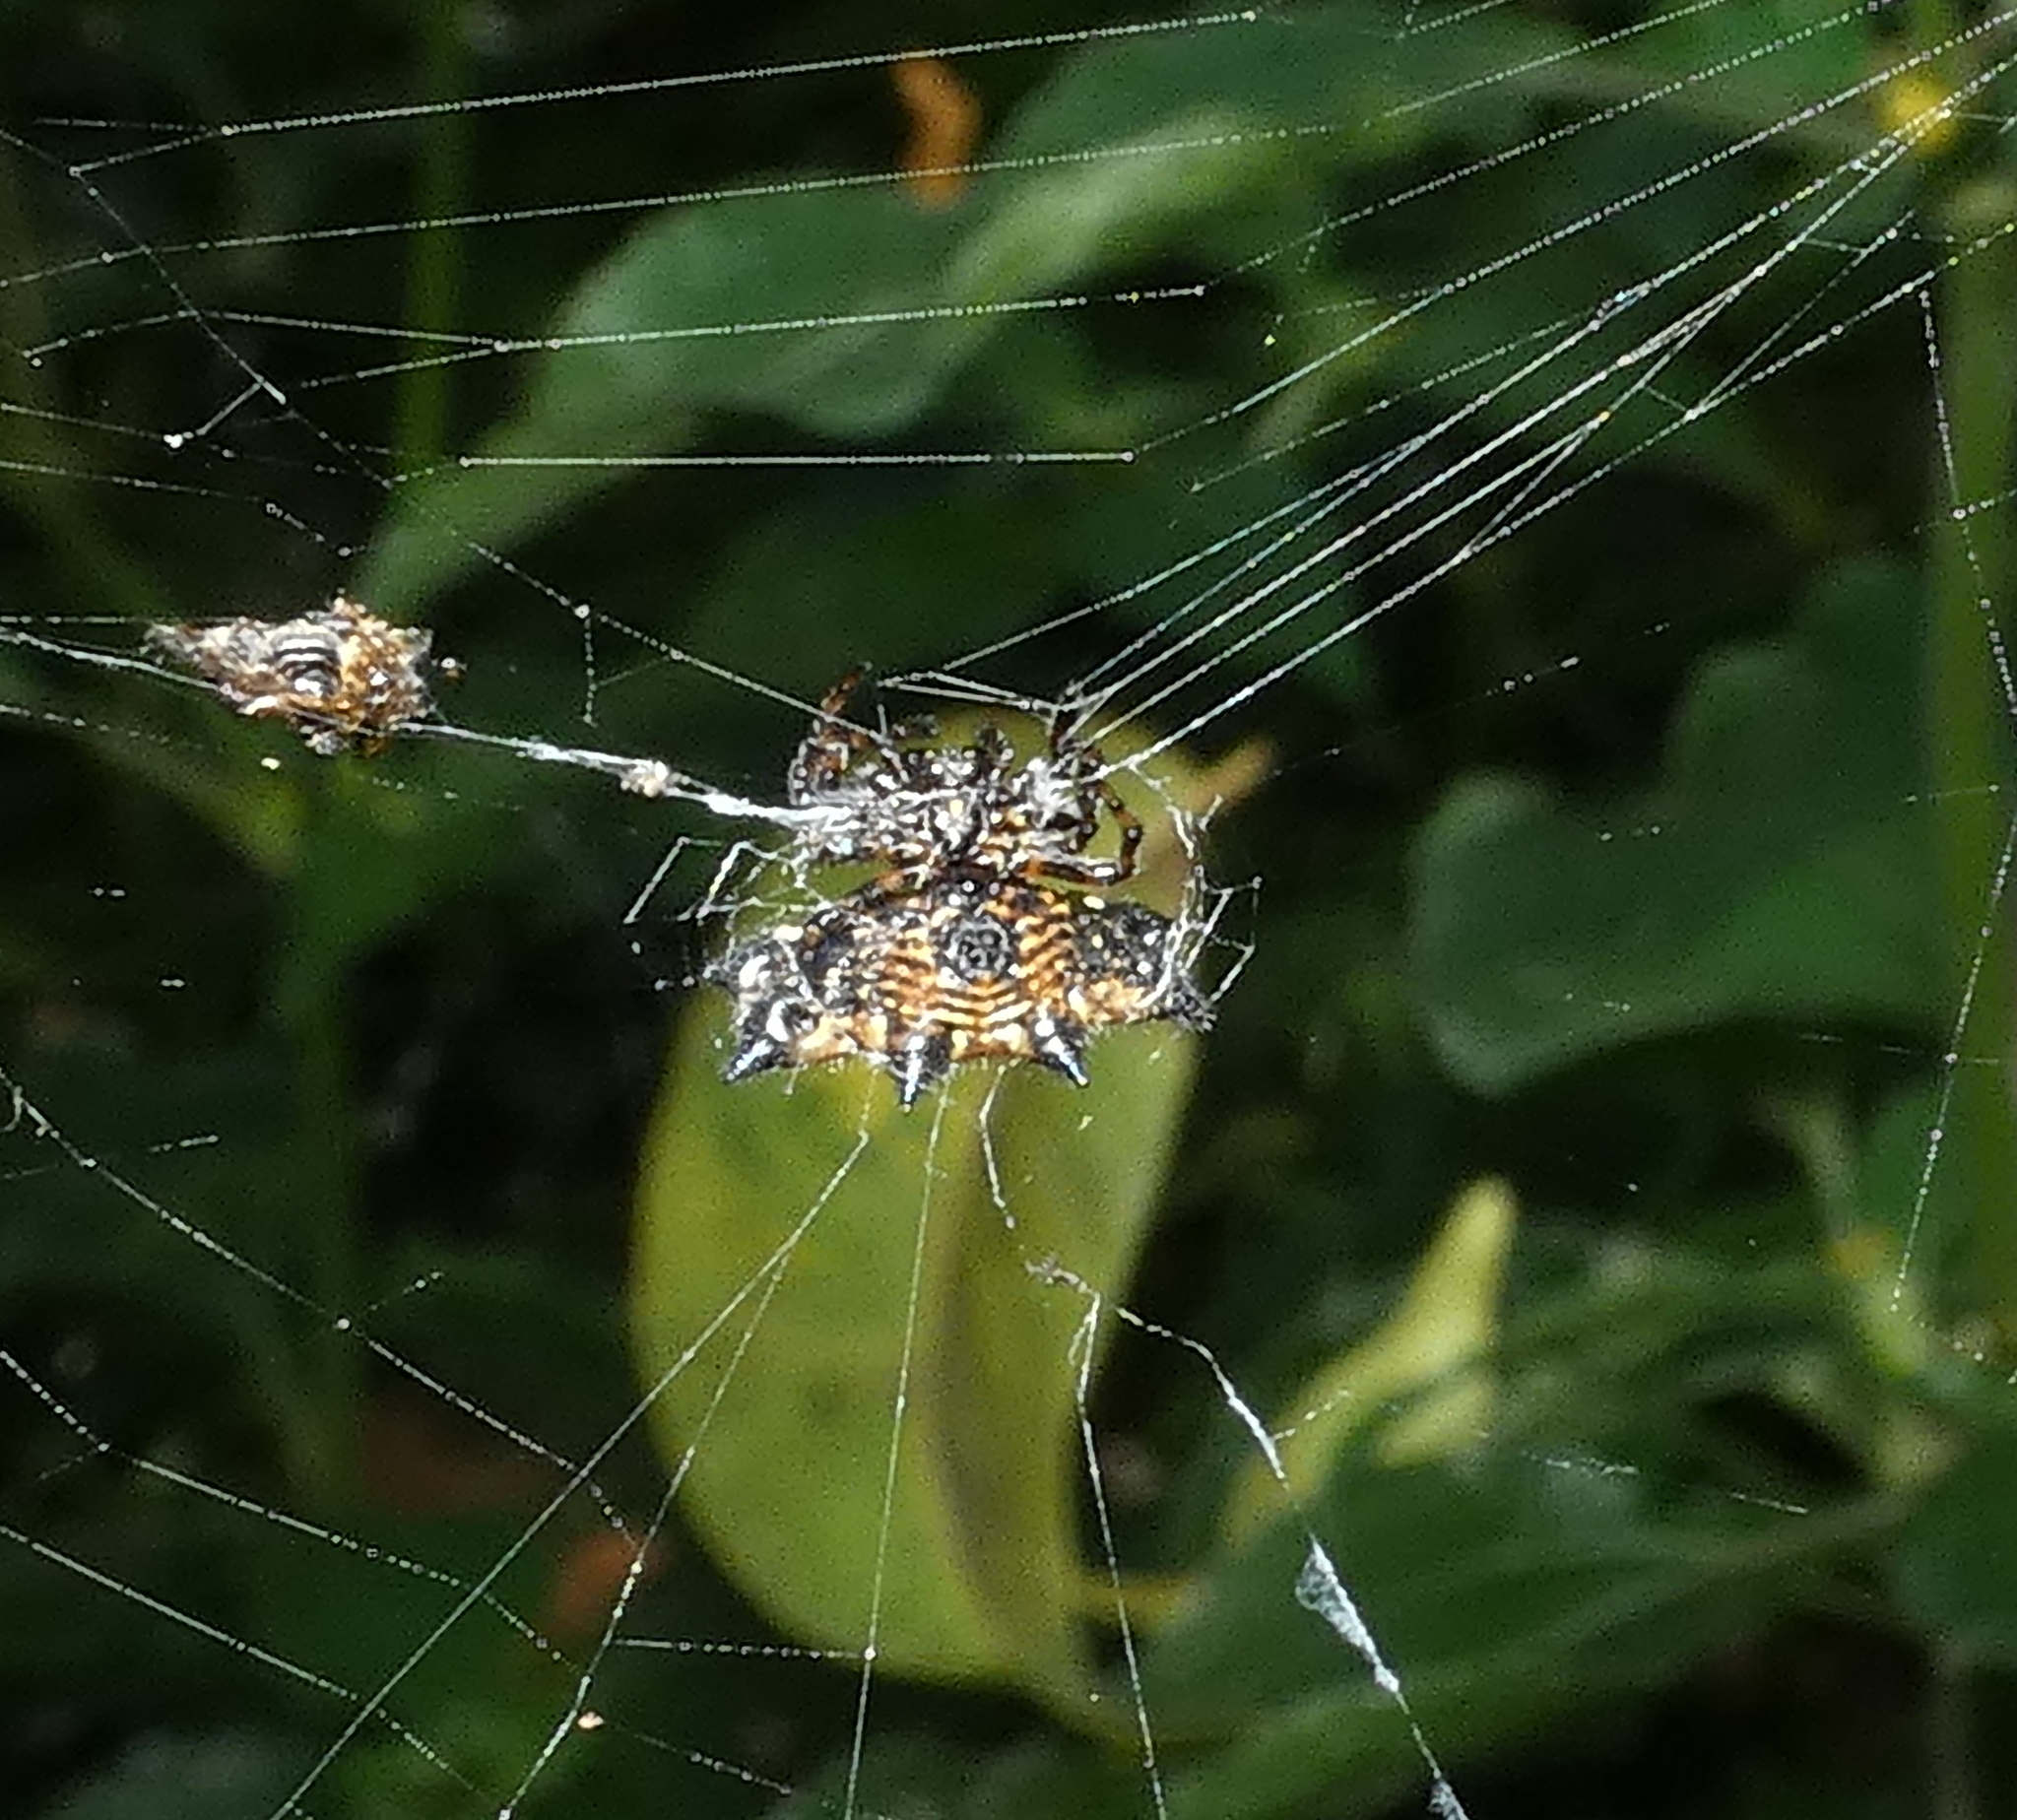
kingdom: Animalia
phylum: Arthropoda
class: Arachnida
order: Araneae
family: Araneidae
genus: Gasteracantha
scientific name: Gasteracantha cancriformis
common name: Orb weavers
